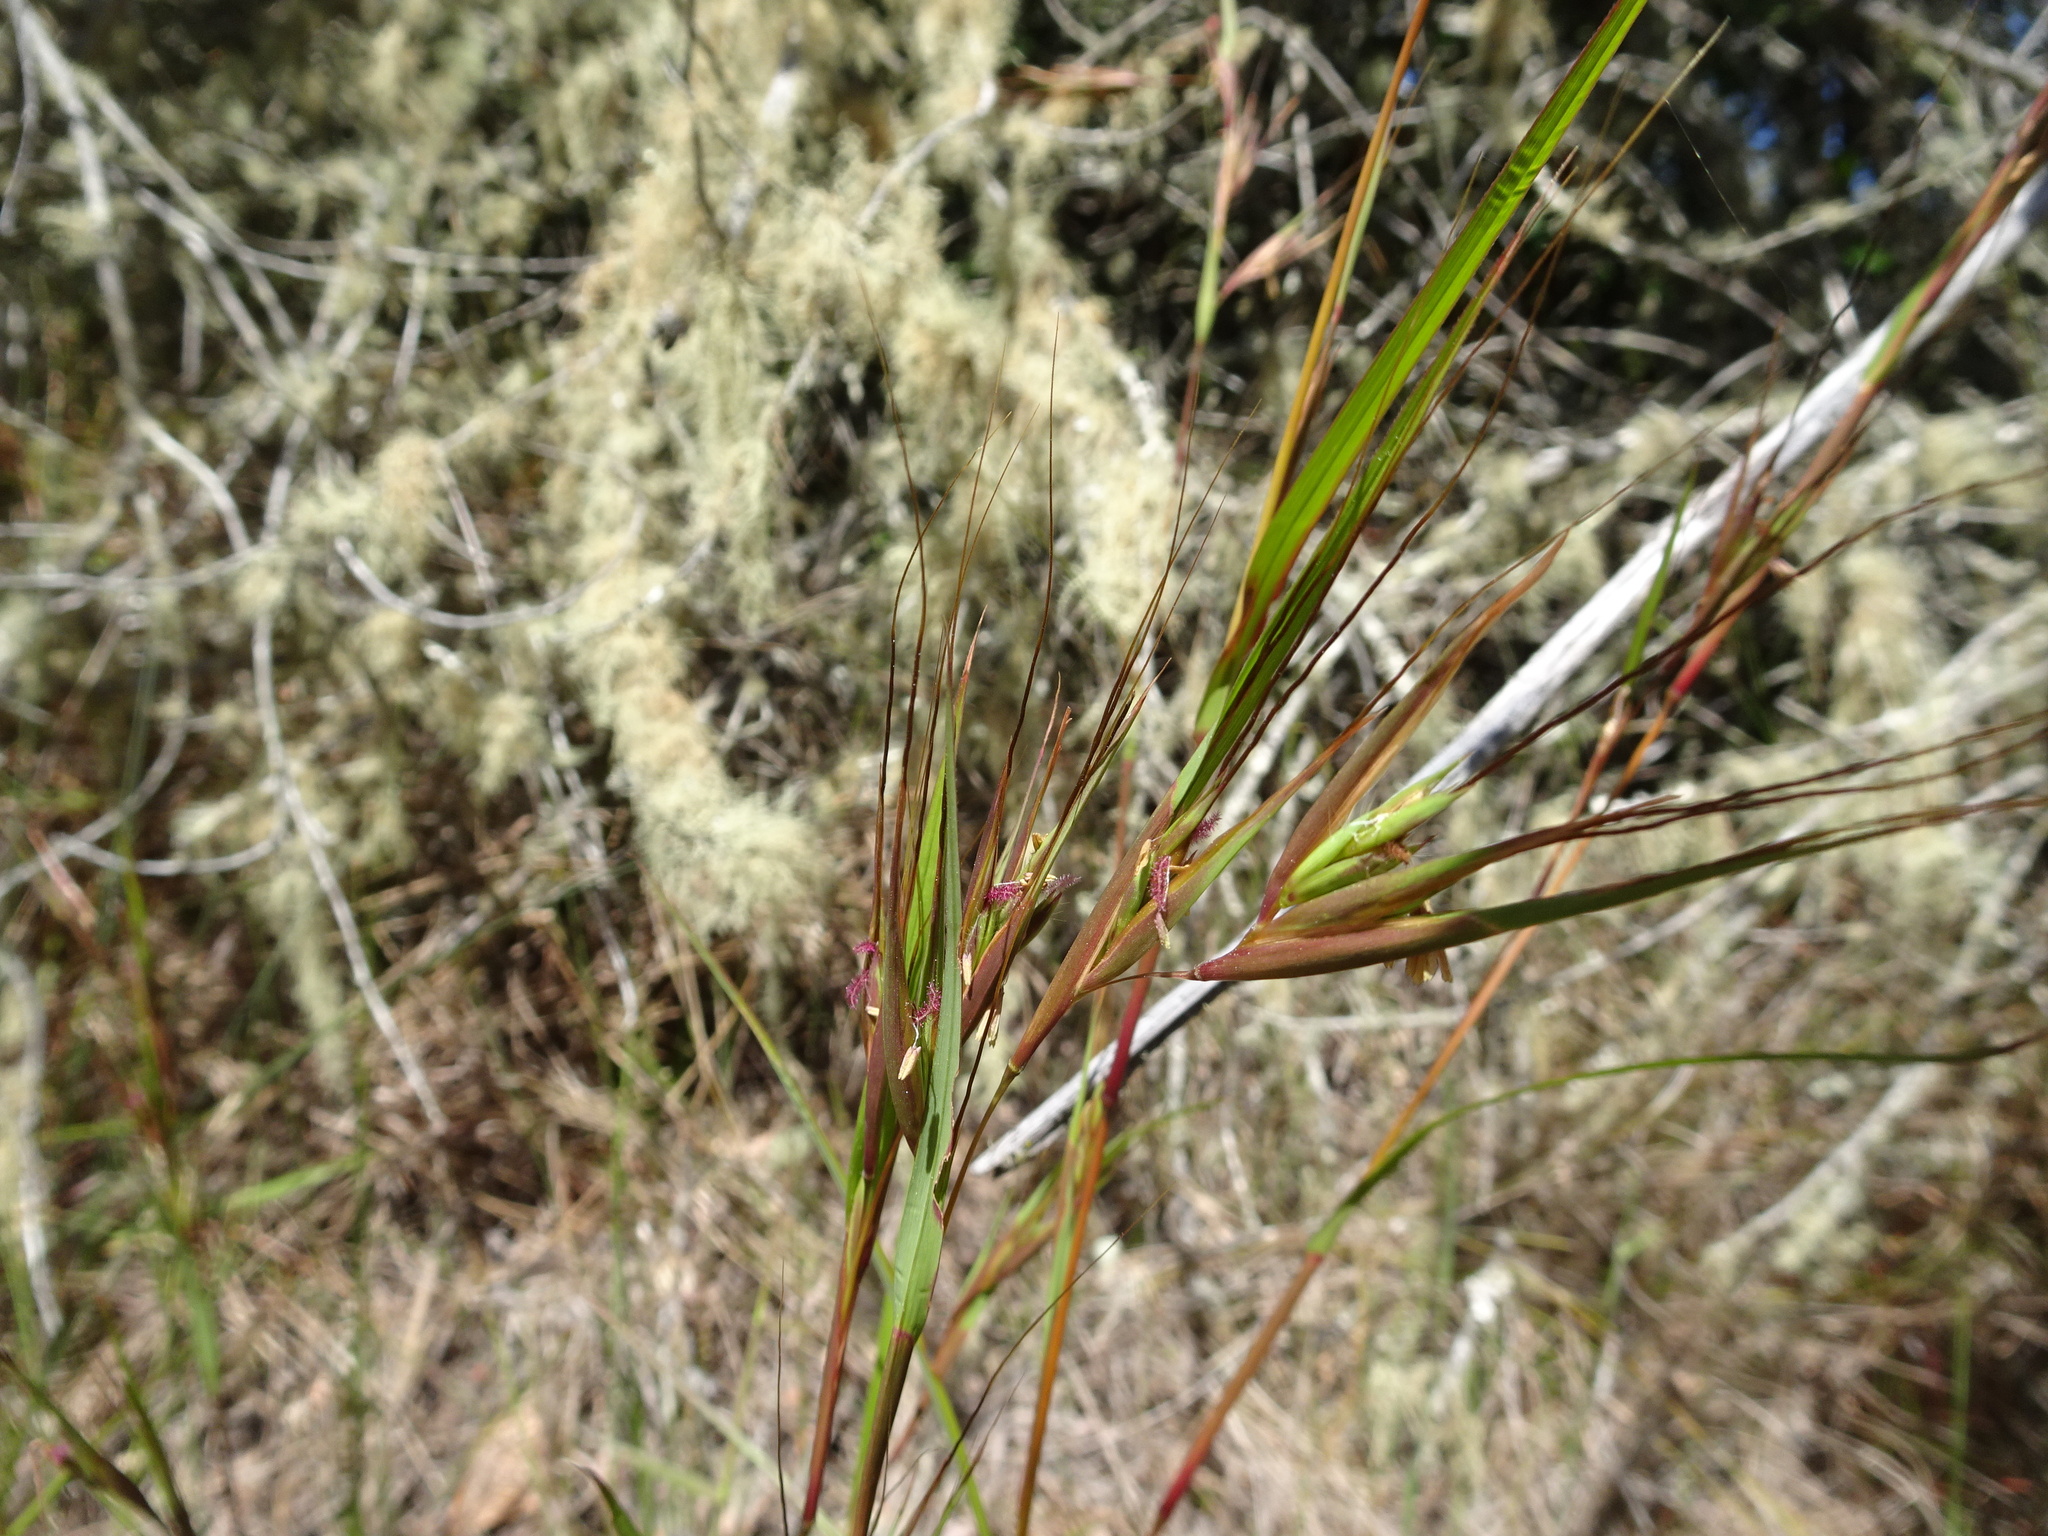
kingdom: Plantae
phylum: Tracheophyta
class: Liliopsida
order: Poales
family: Poaceae
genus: Themeda
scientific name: Themeda triandra
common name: Kangaroo grass
